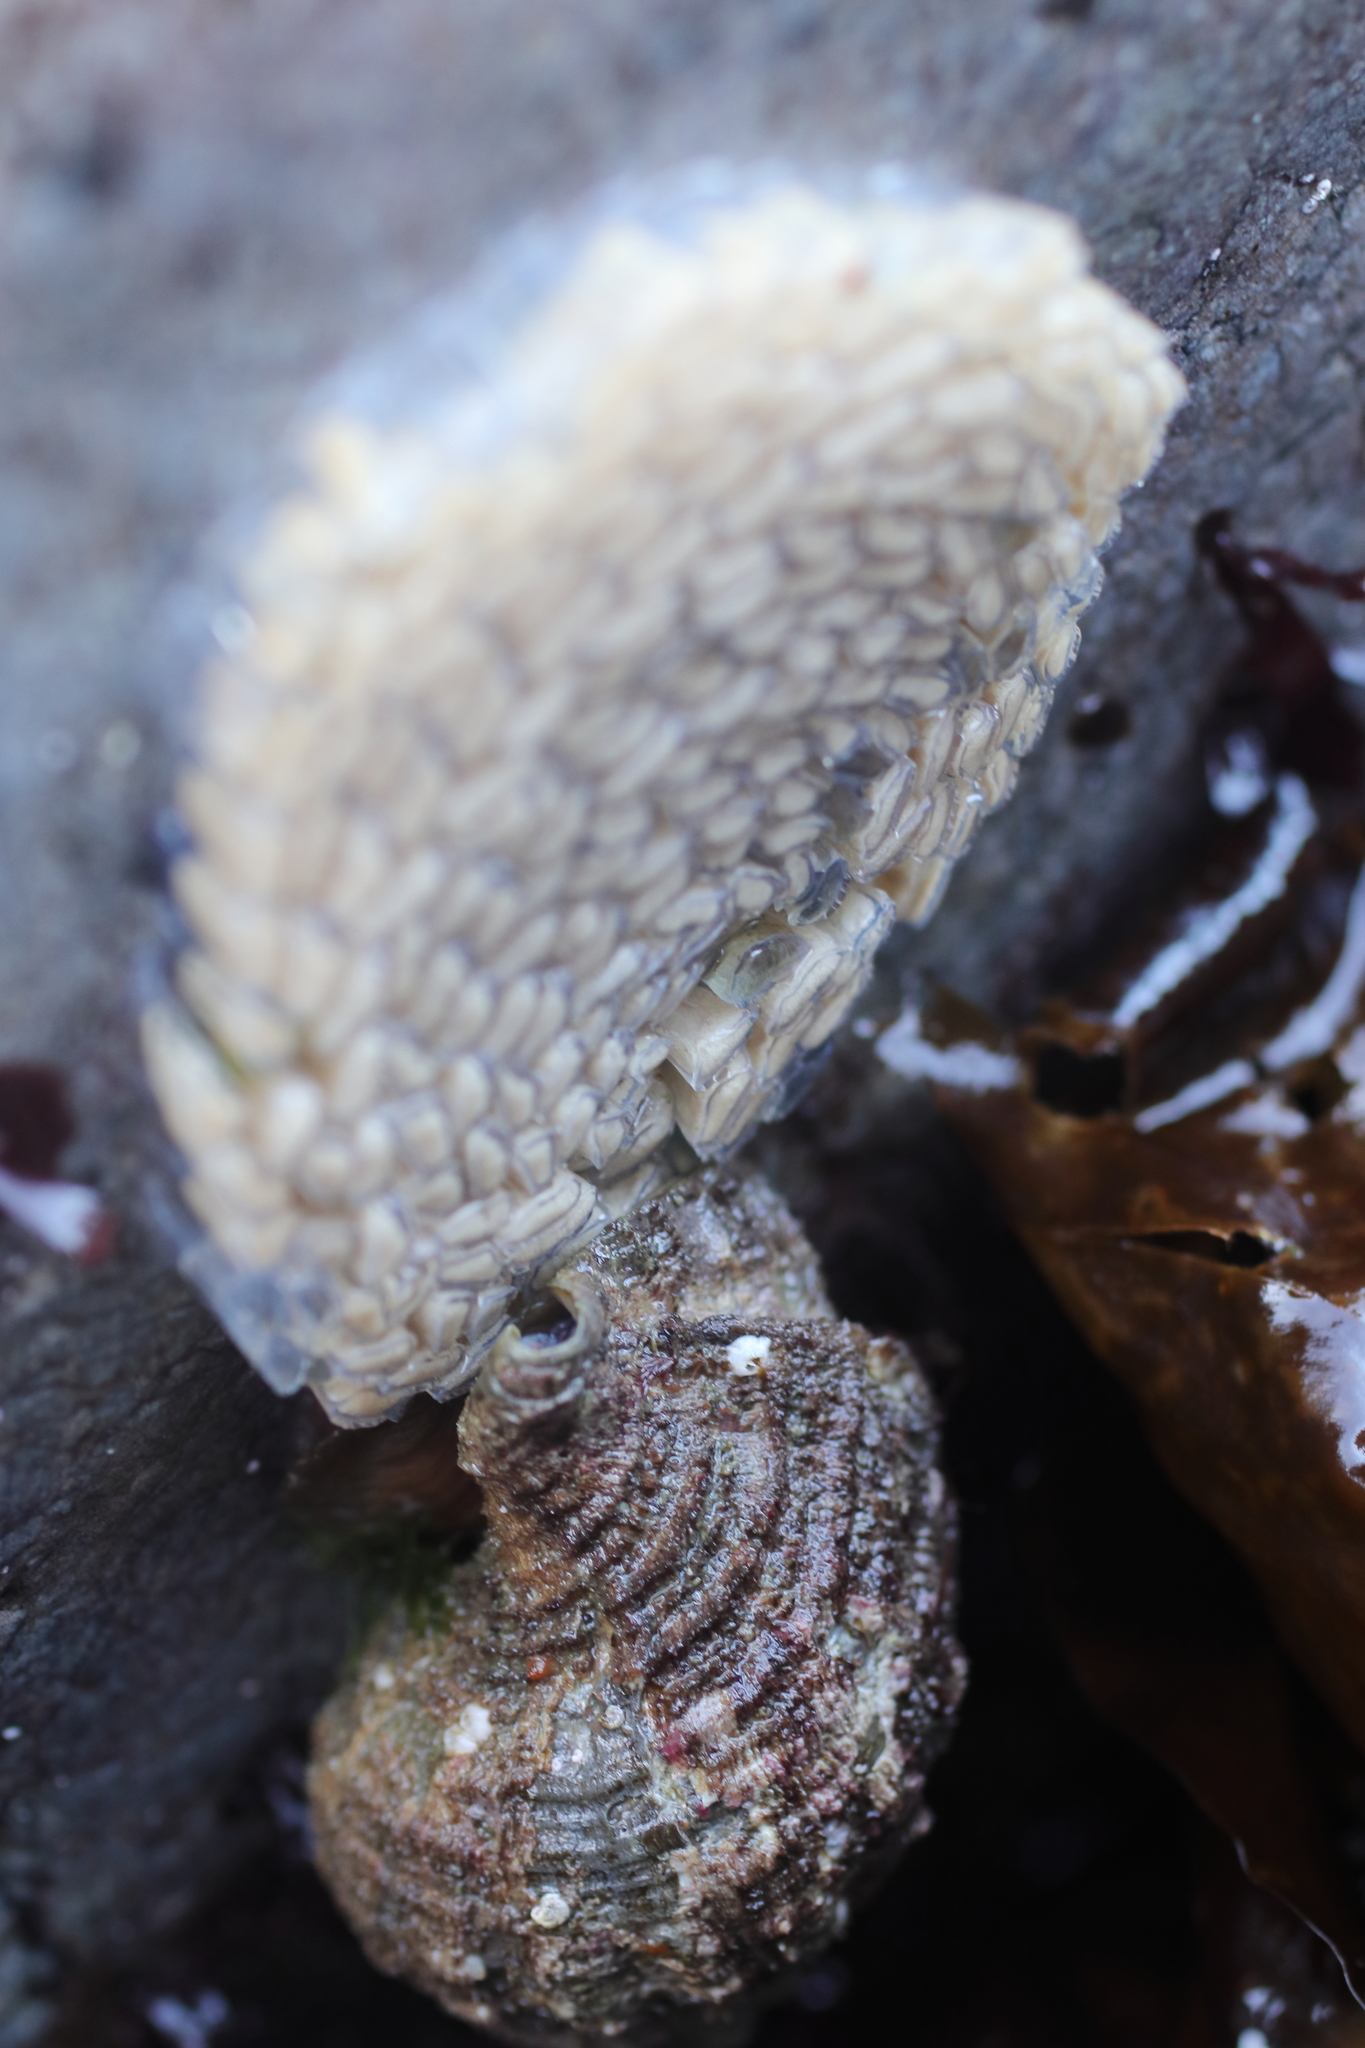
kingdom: Animalia
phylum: Mollusca
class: Gastropoda
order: Littorinimorpha
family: Cymatiidae
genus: Fusitriton
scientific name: Fusitriton oregonensis
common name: Oregon hairy triton
